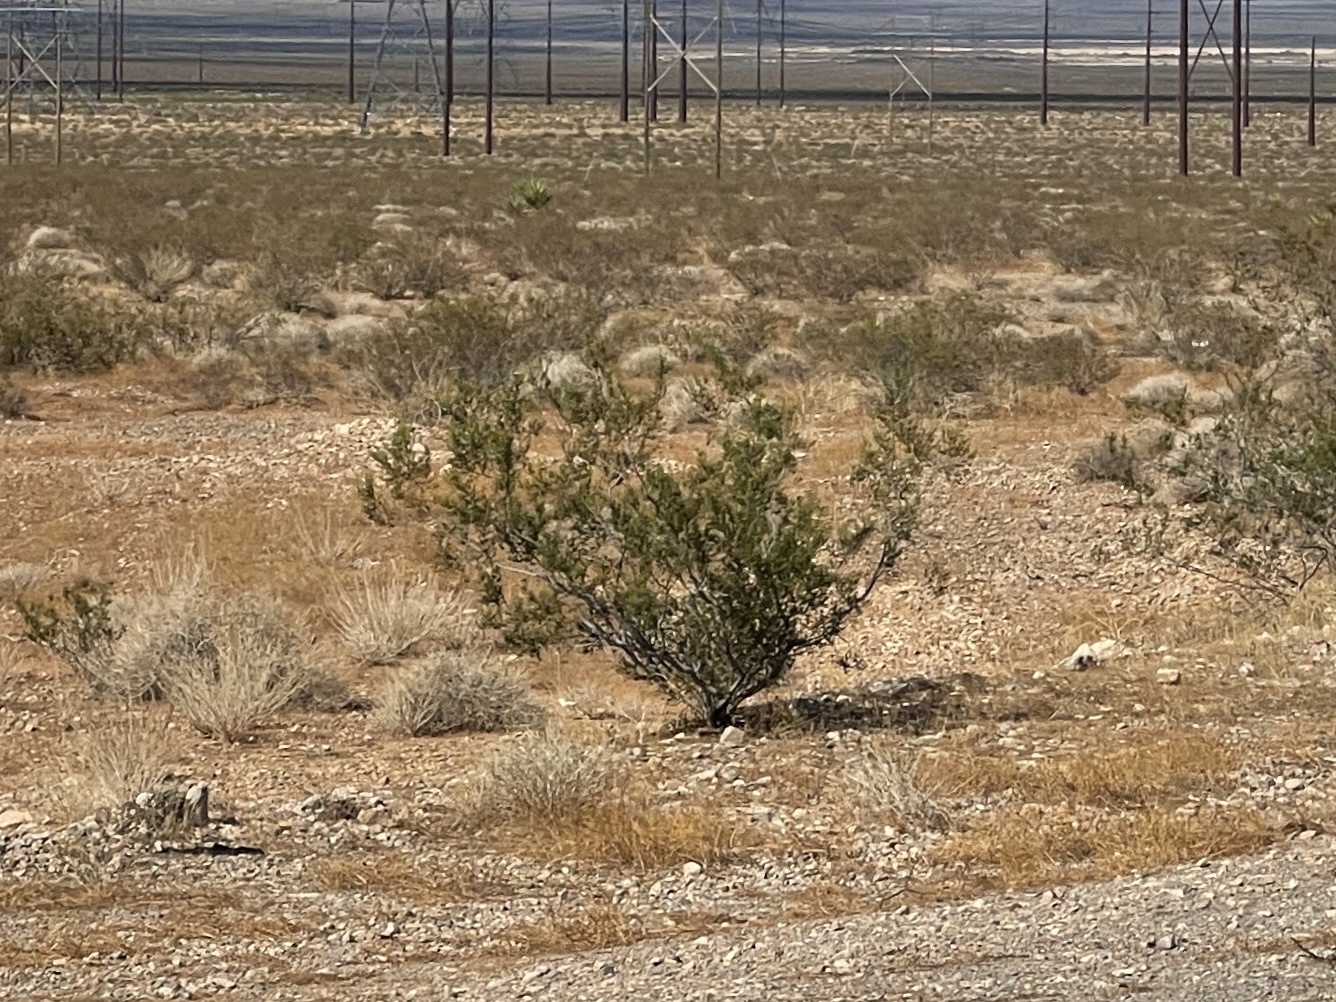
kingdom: Plantae
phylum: Tracheophyta
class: Magnoliopsida
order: Zygophyllales
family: Zygophyllaceae
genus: Larrea
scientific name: Larrea tridentata
